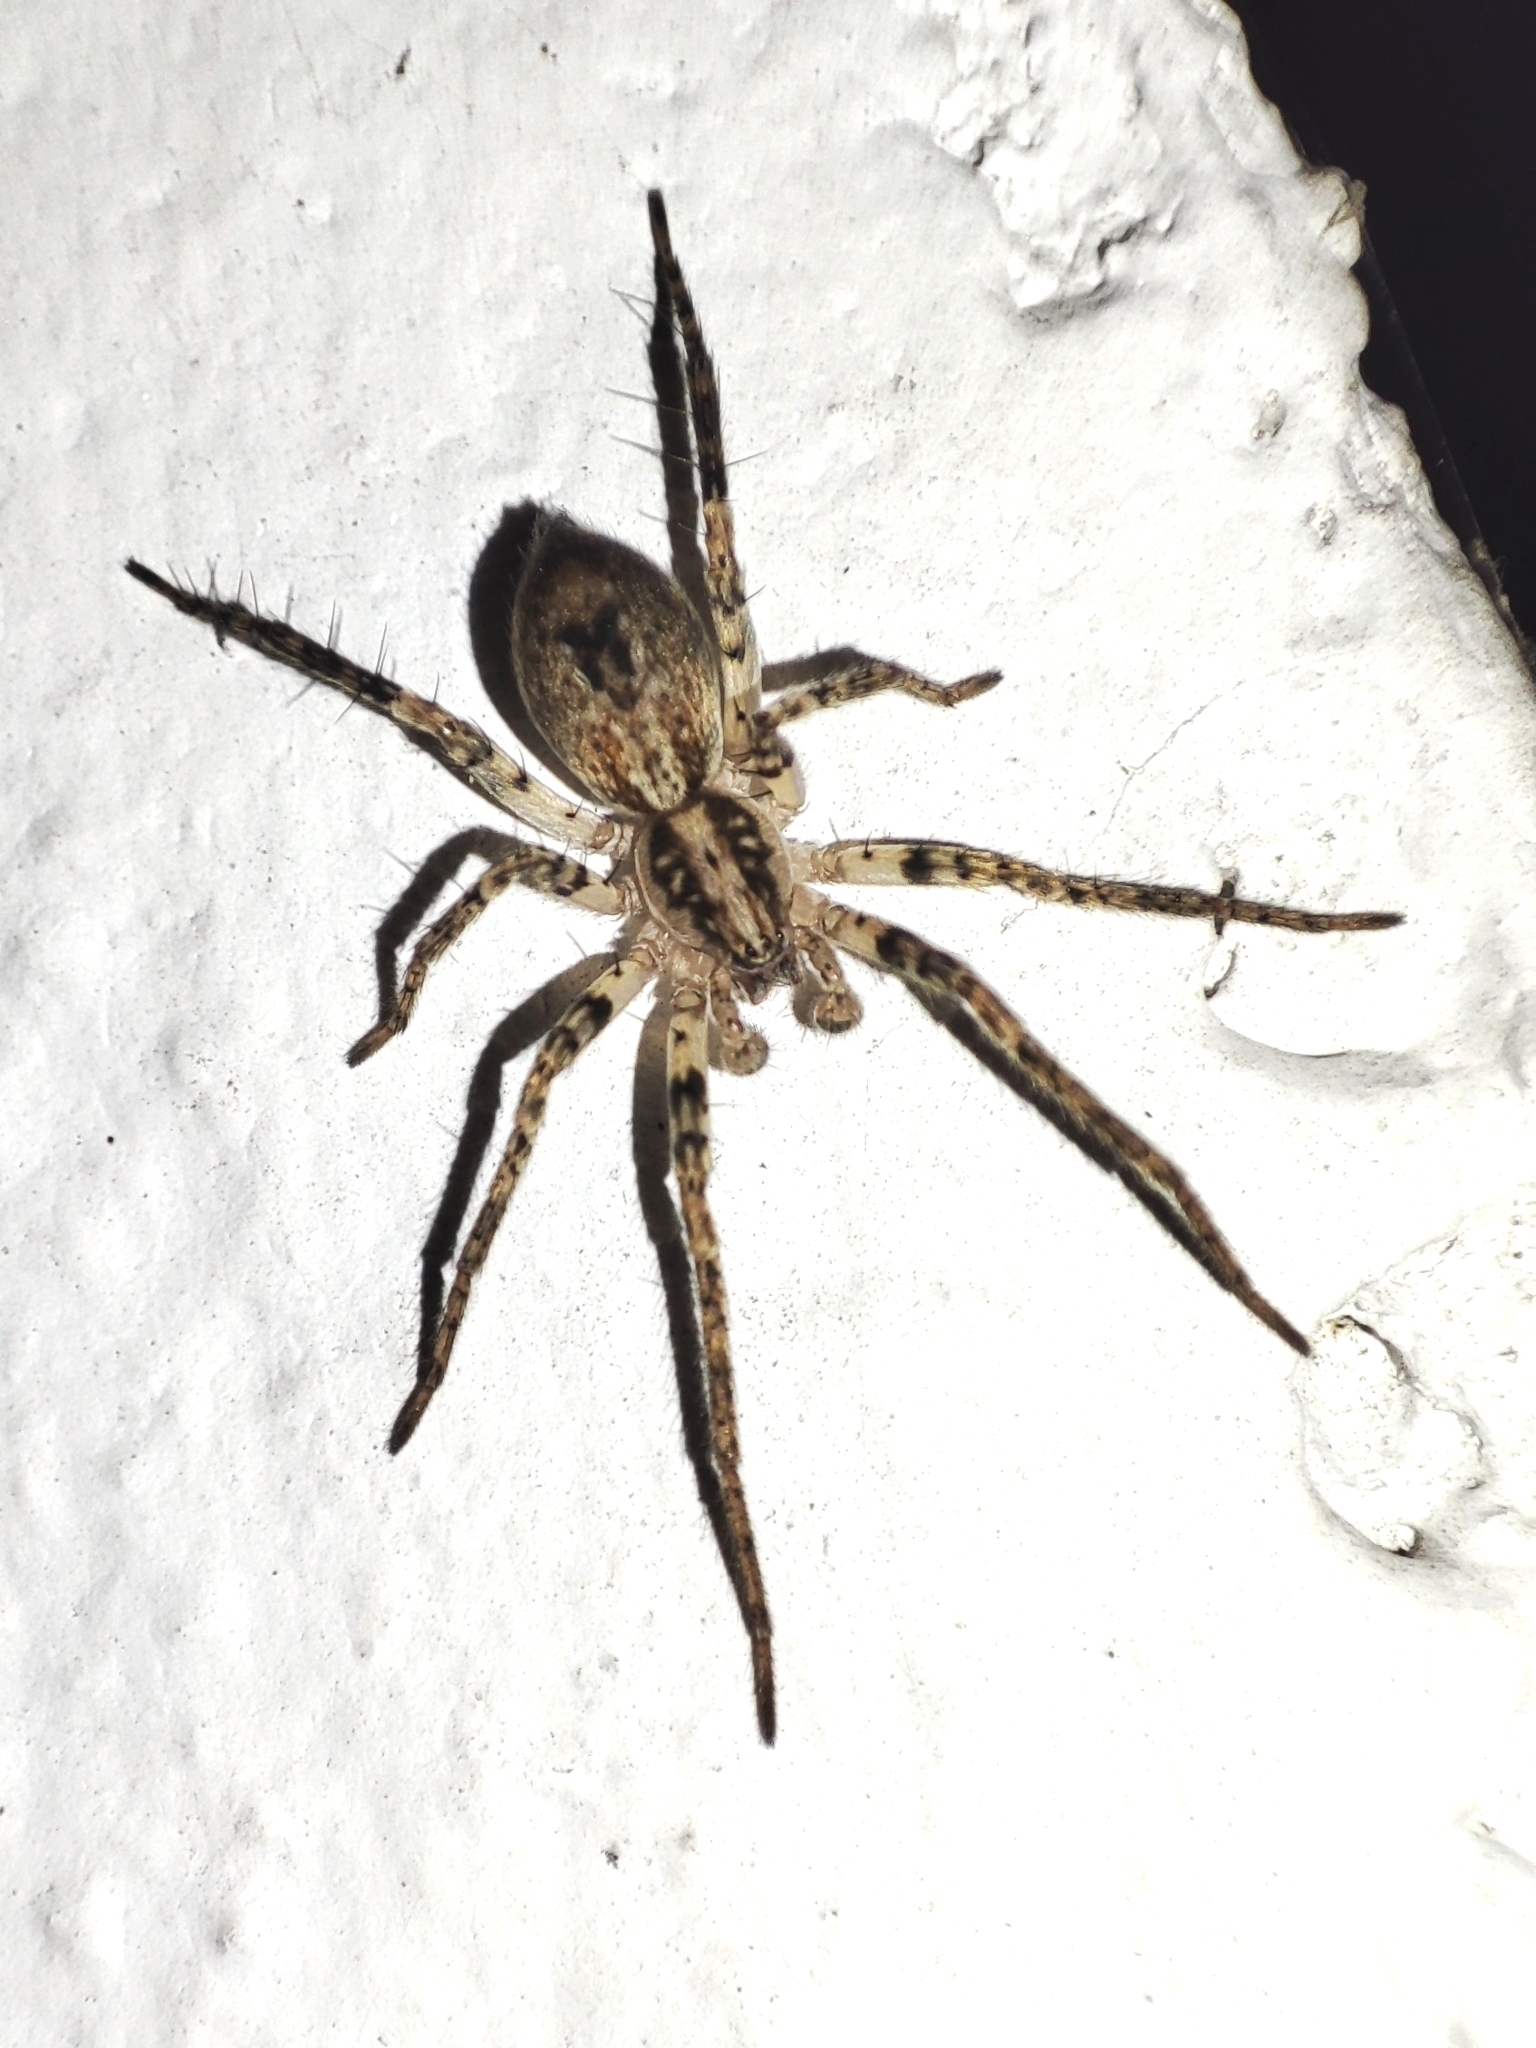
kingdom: Animalia
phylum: Arthropoda
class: Arachnida
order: Araneae
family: Anyphaenidae
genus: Anyphaena
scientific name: Anyphaena accentuata
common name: Buzzing spider
